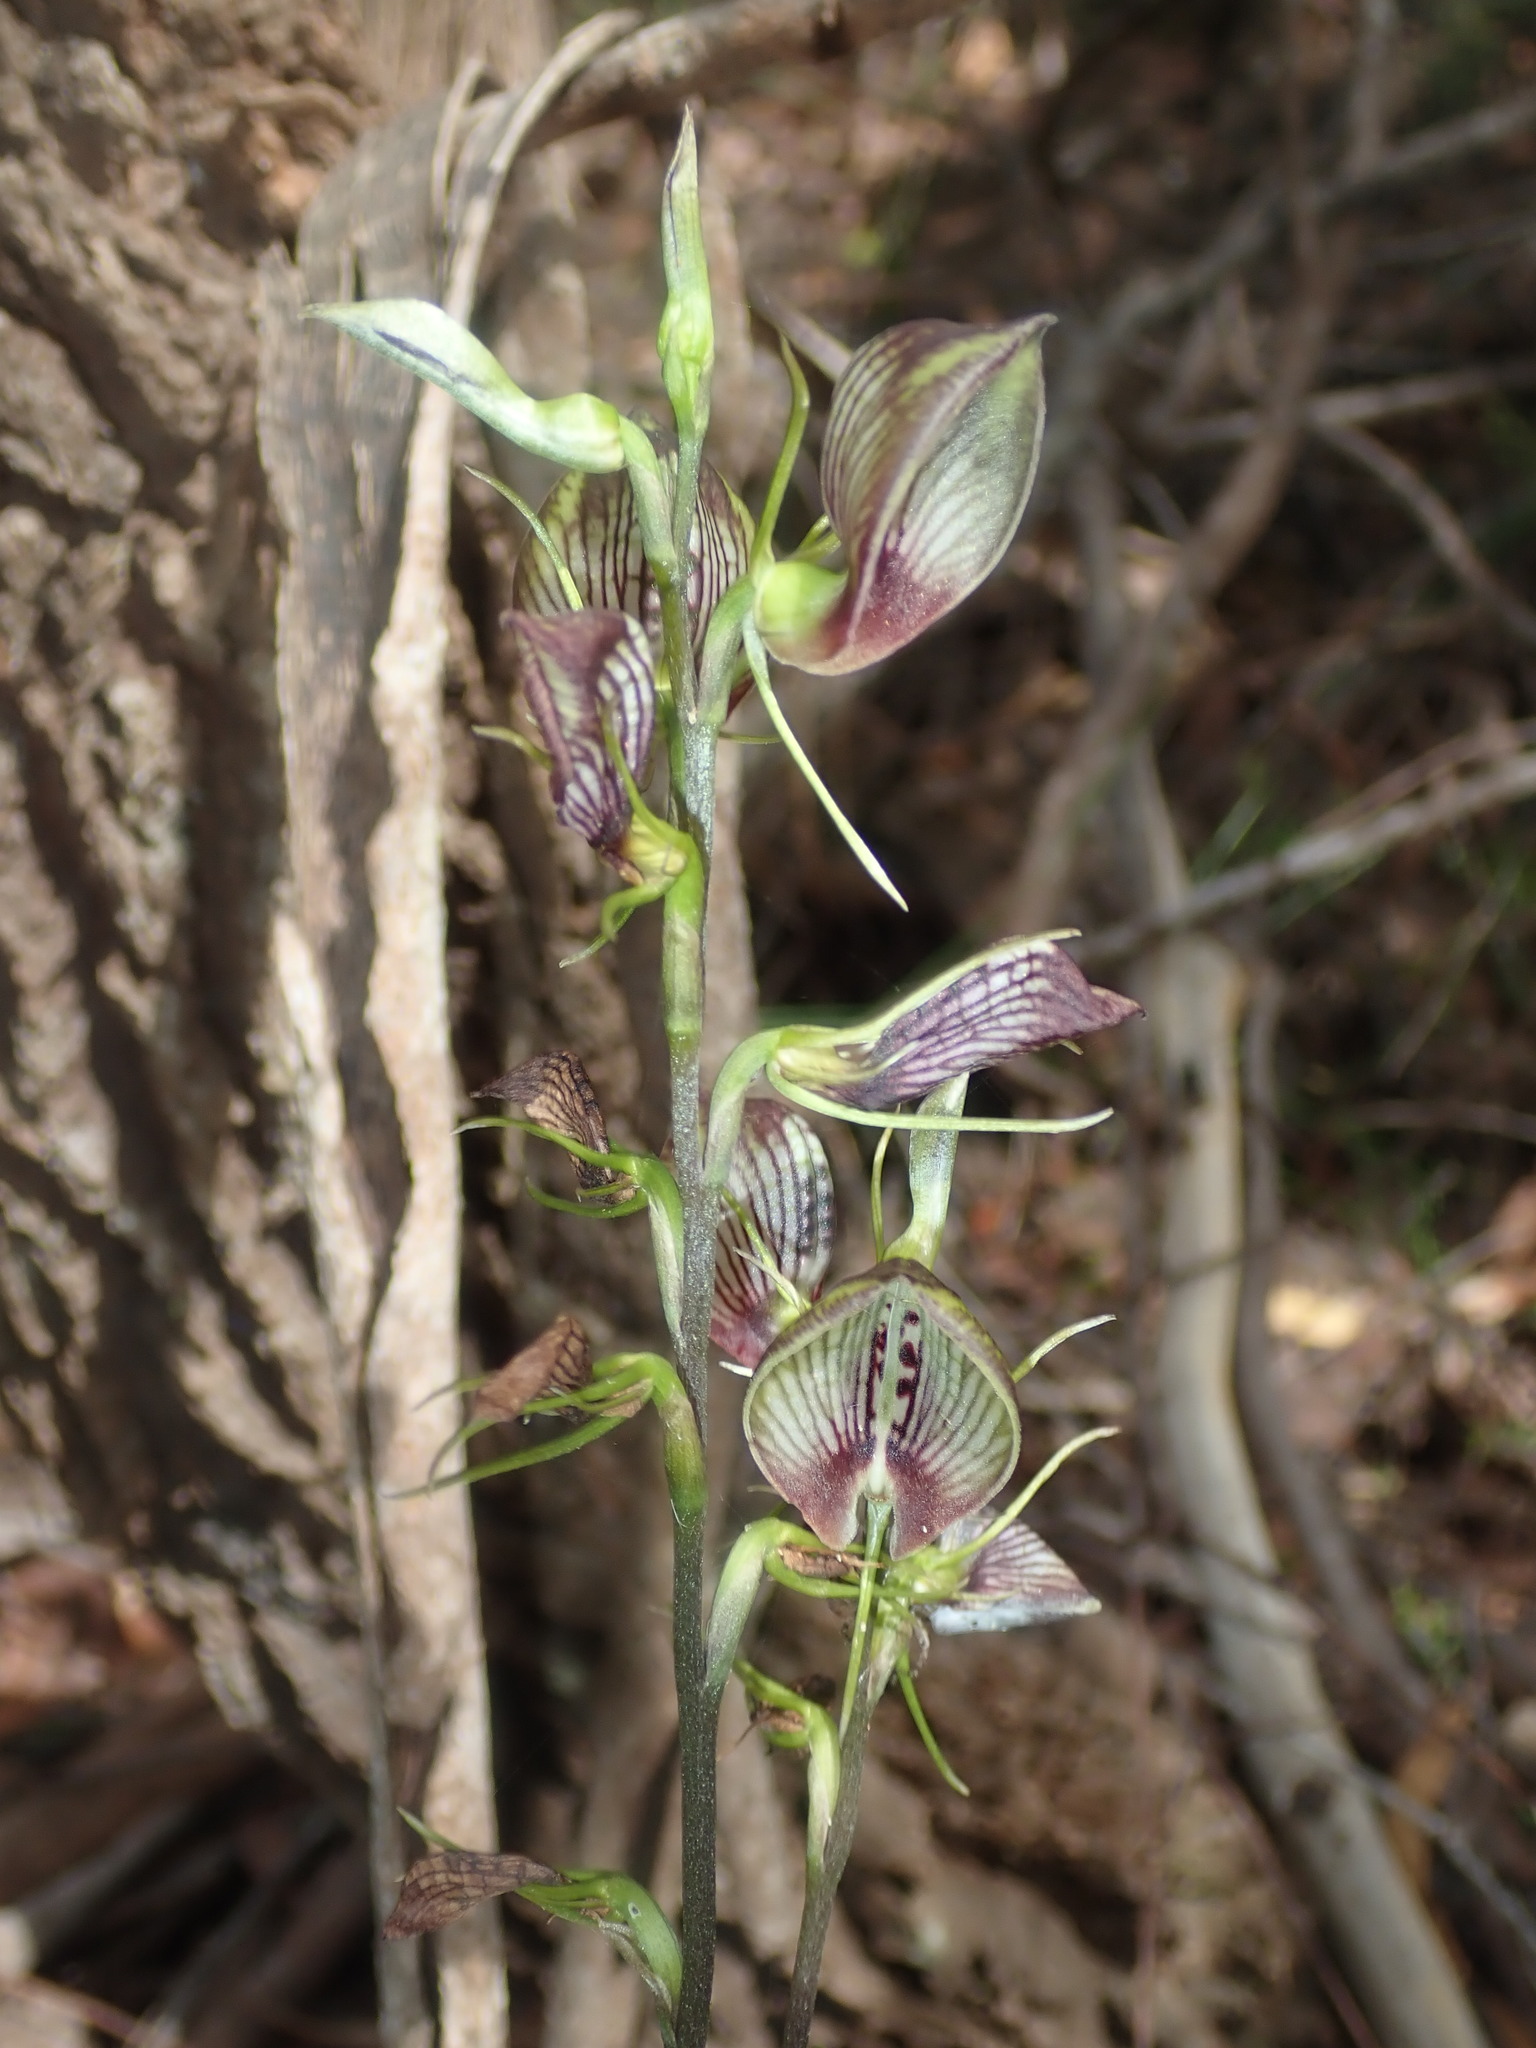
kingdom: Plantae
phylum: Tracheophyta
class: Liliopsida
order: Asparagales
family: Orchidaceae
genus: Cryptostylis
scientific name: Cryptostylis erecta
